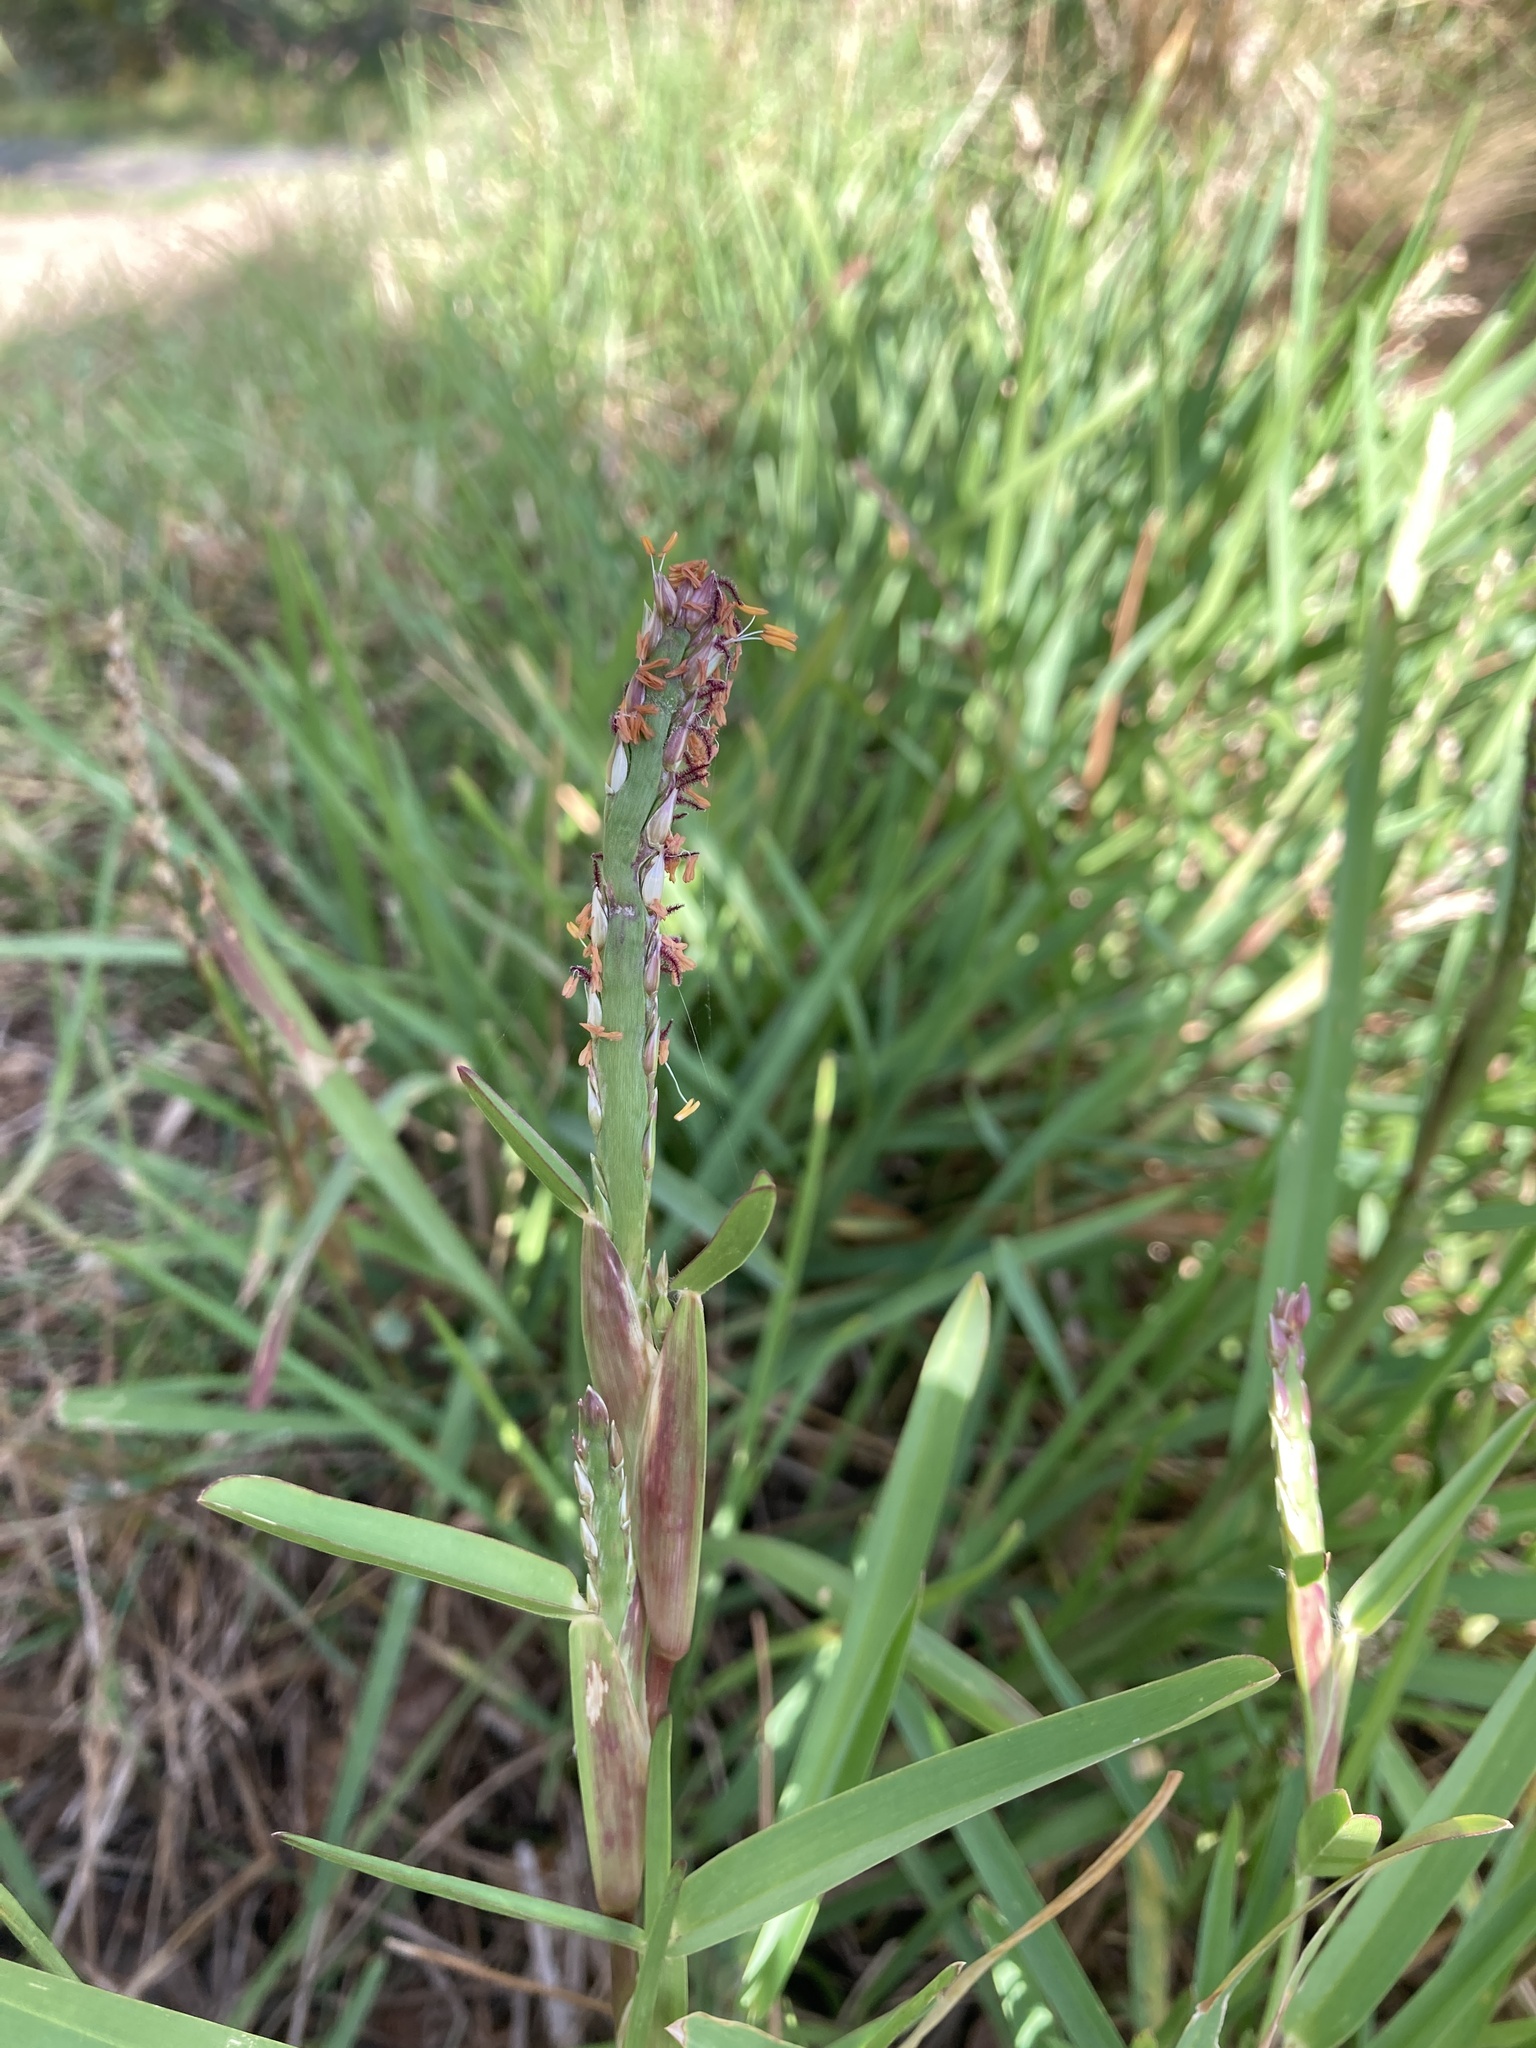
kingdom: Plantae
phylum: Tracheophyta
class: Liliopsida
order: Poales
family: Poaceae
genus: Stenotaphrum
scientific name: Stenotaphrum secundatum
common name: St. augustine grass
